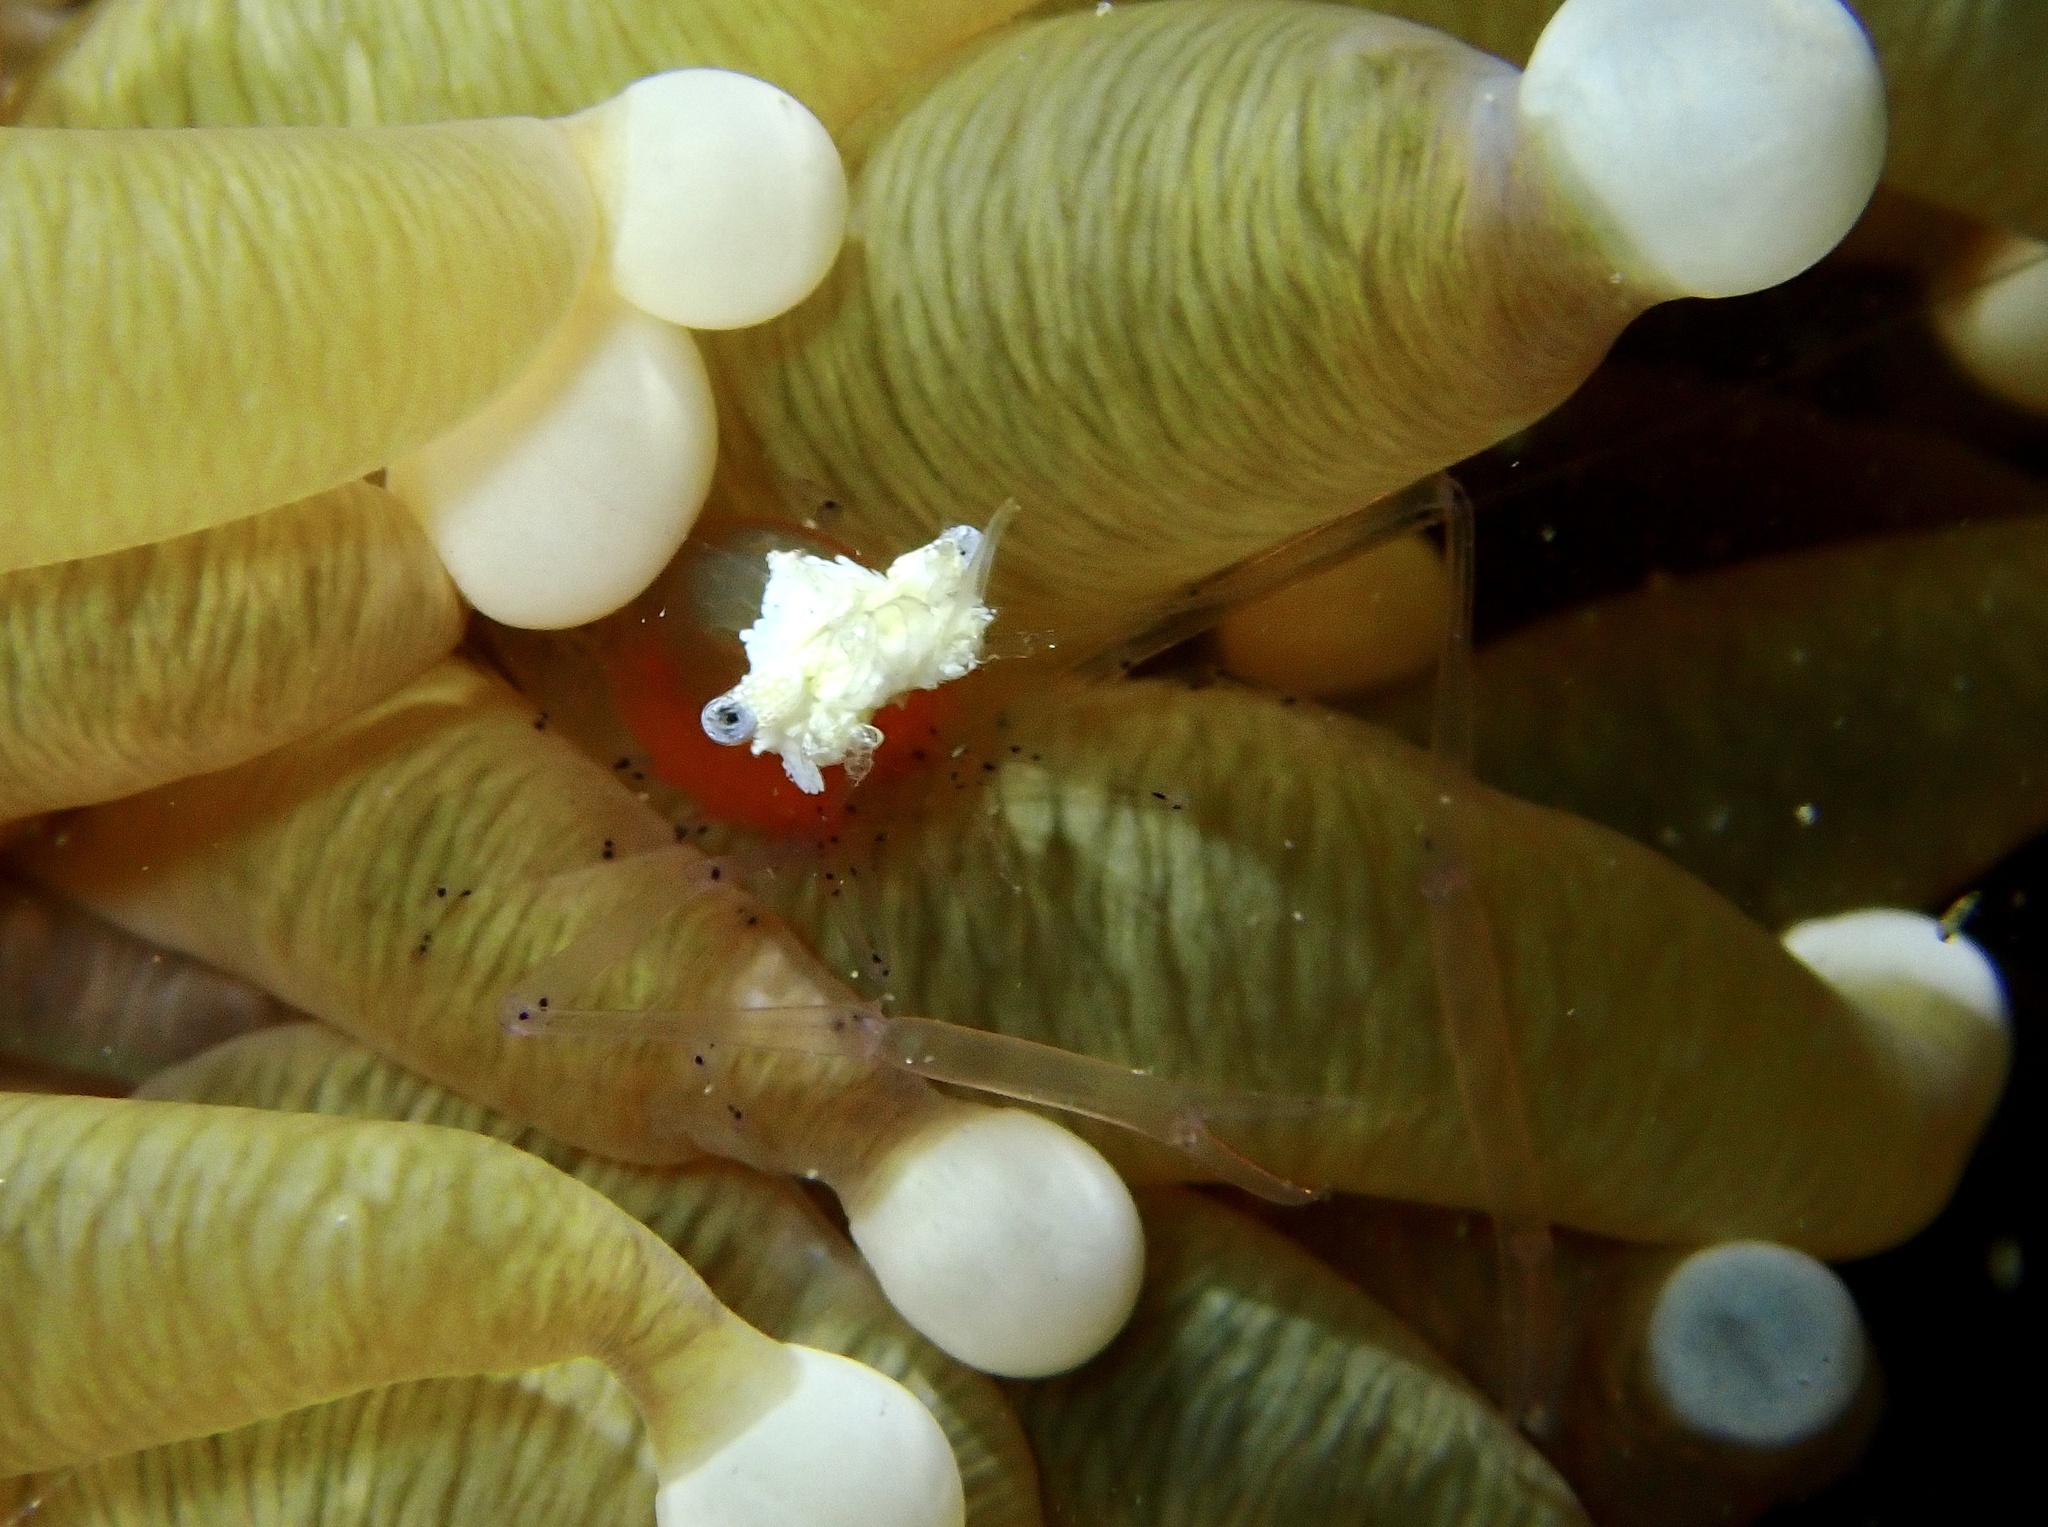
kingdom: Animalia
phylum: Arthropoda
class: Malacostraca
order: Decapoda
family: Palaemonidae
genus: Cuapetes
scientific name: Cuapetes kororensis
